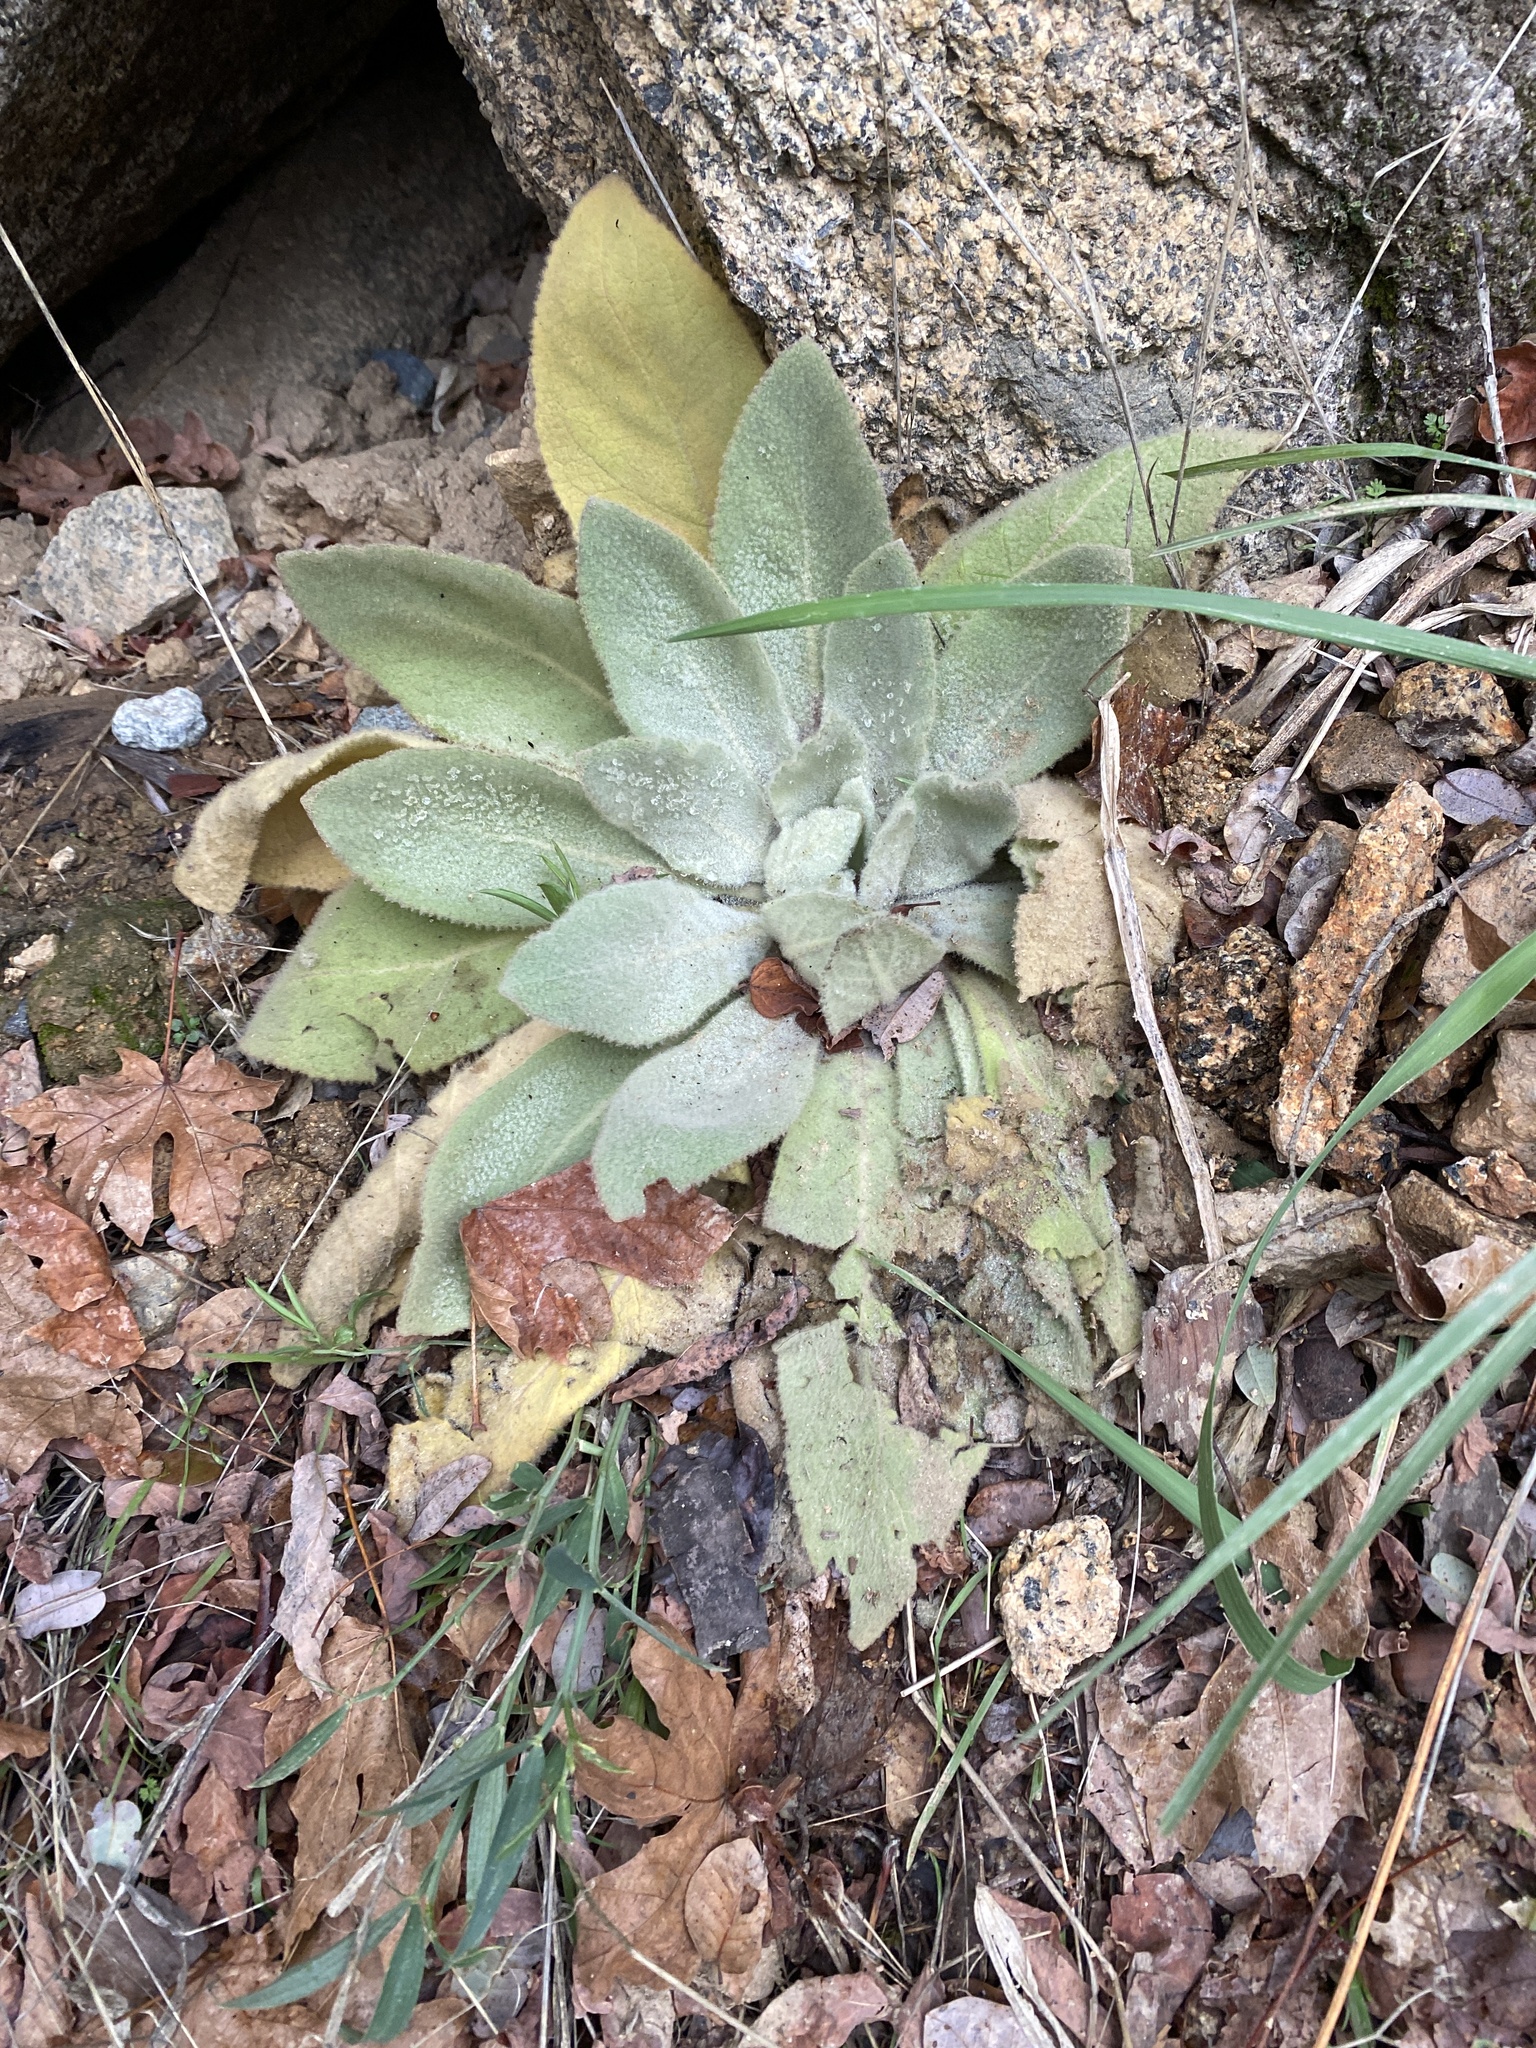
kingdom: Plantae
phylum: Tracheophyta
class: Magnoliopsida
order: Lamiales
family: Scrophulariaceae
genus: Verbascum
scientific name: Verbascum thapsus
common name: Common mullein
